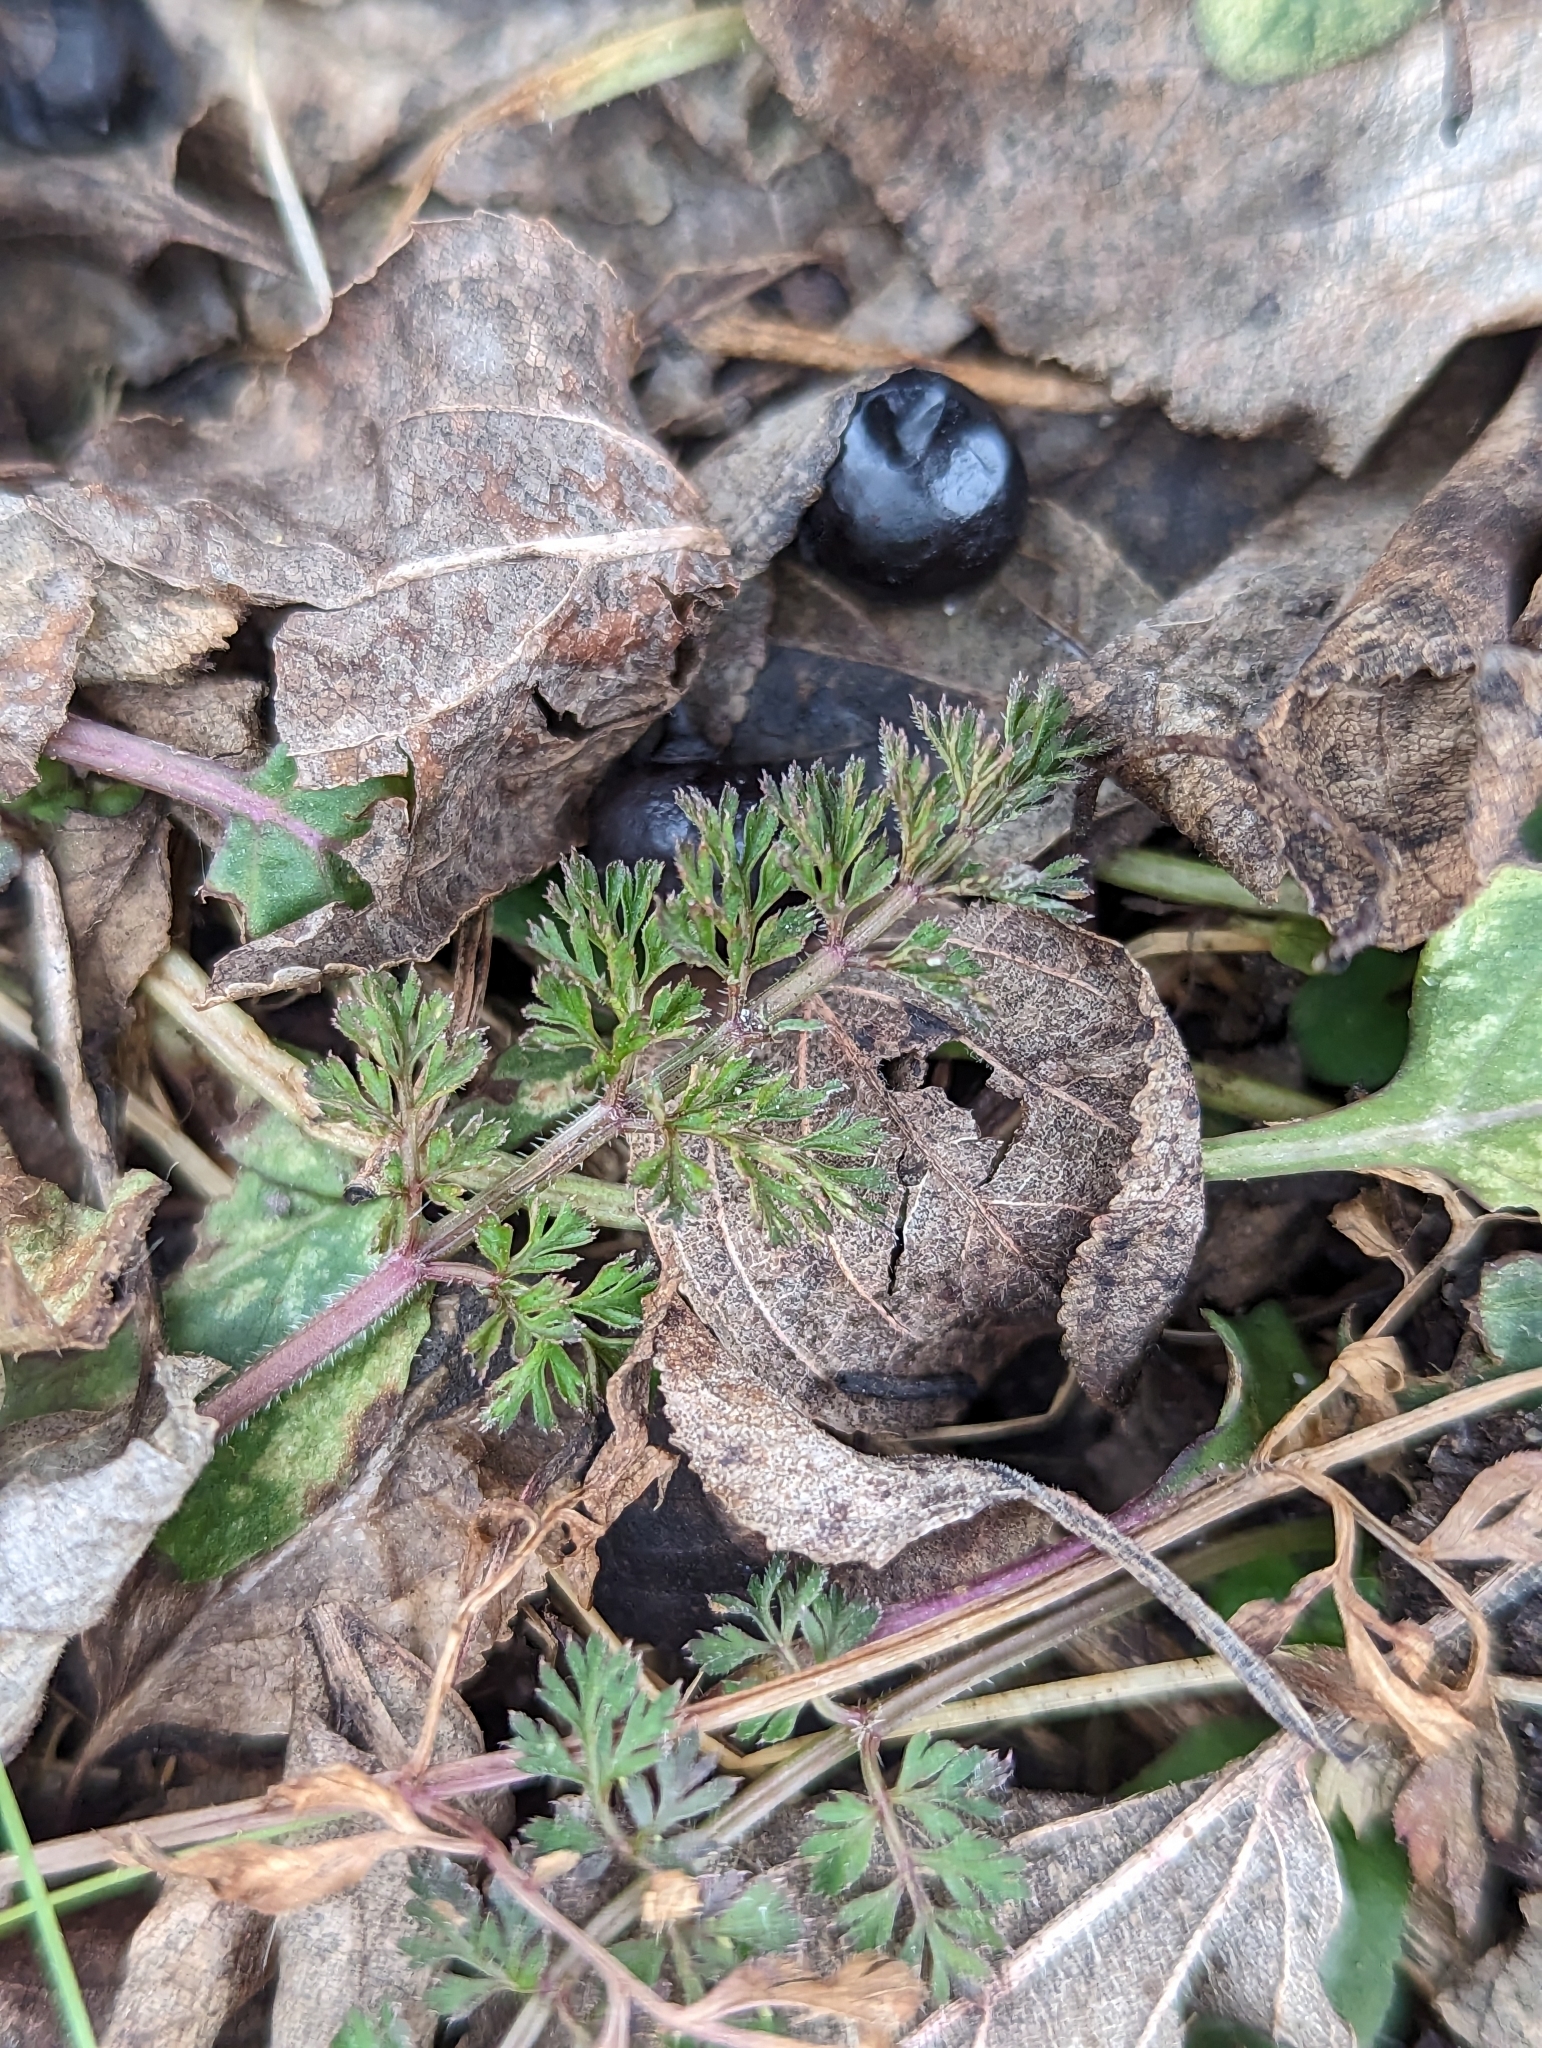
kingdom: Plantae
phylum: Tracheophyta
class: Magnoliopsida
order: Apiales
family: Apiaceae
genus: Daucus
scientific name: Daucus carota
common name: Wild carrot
